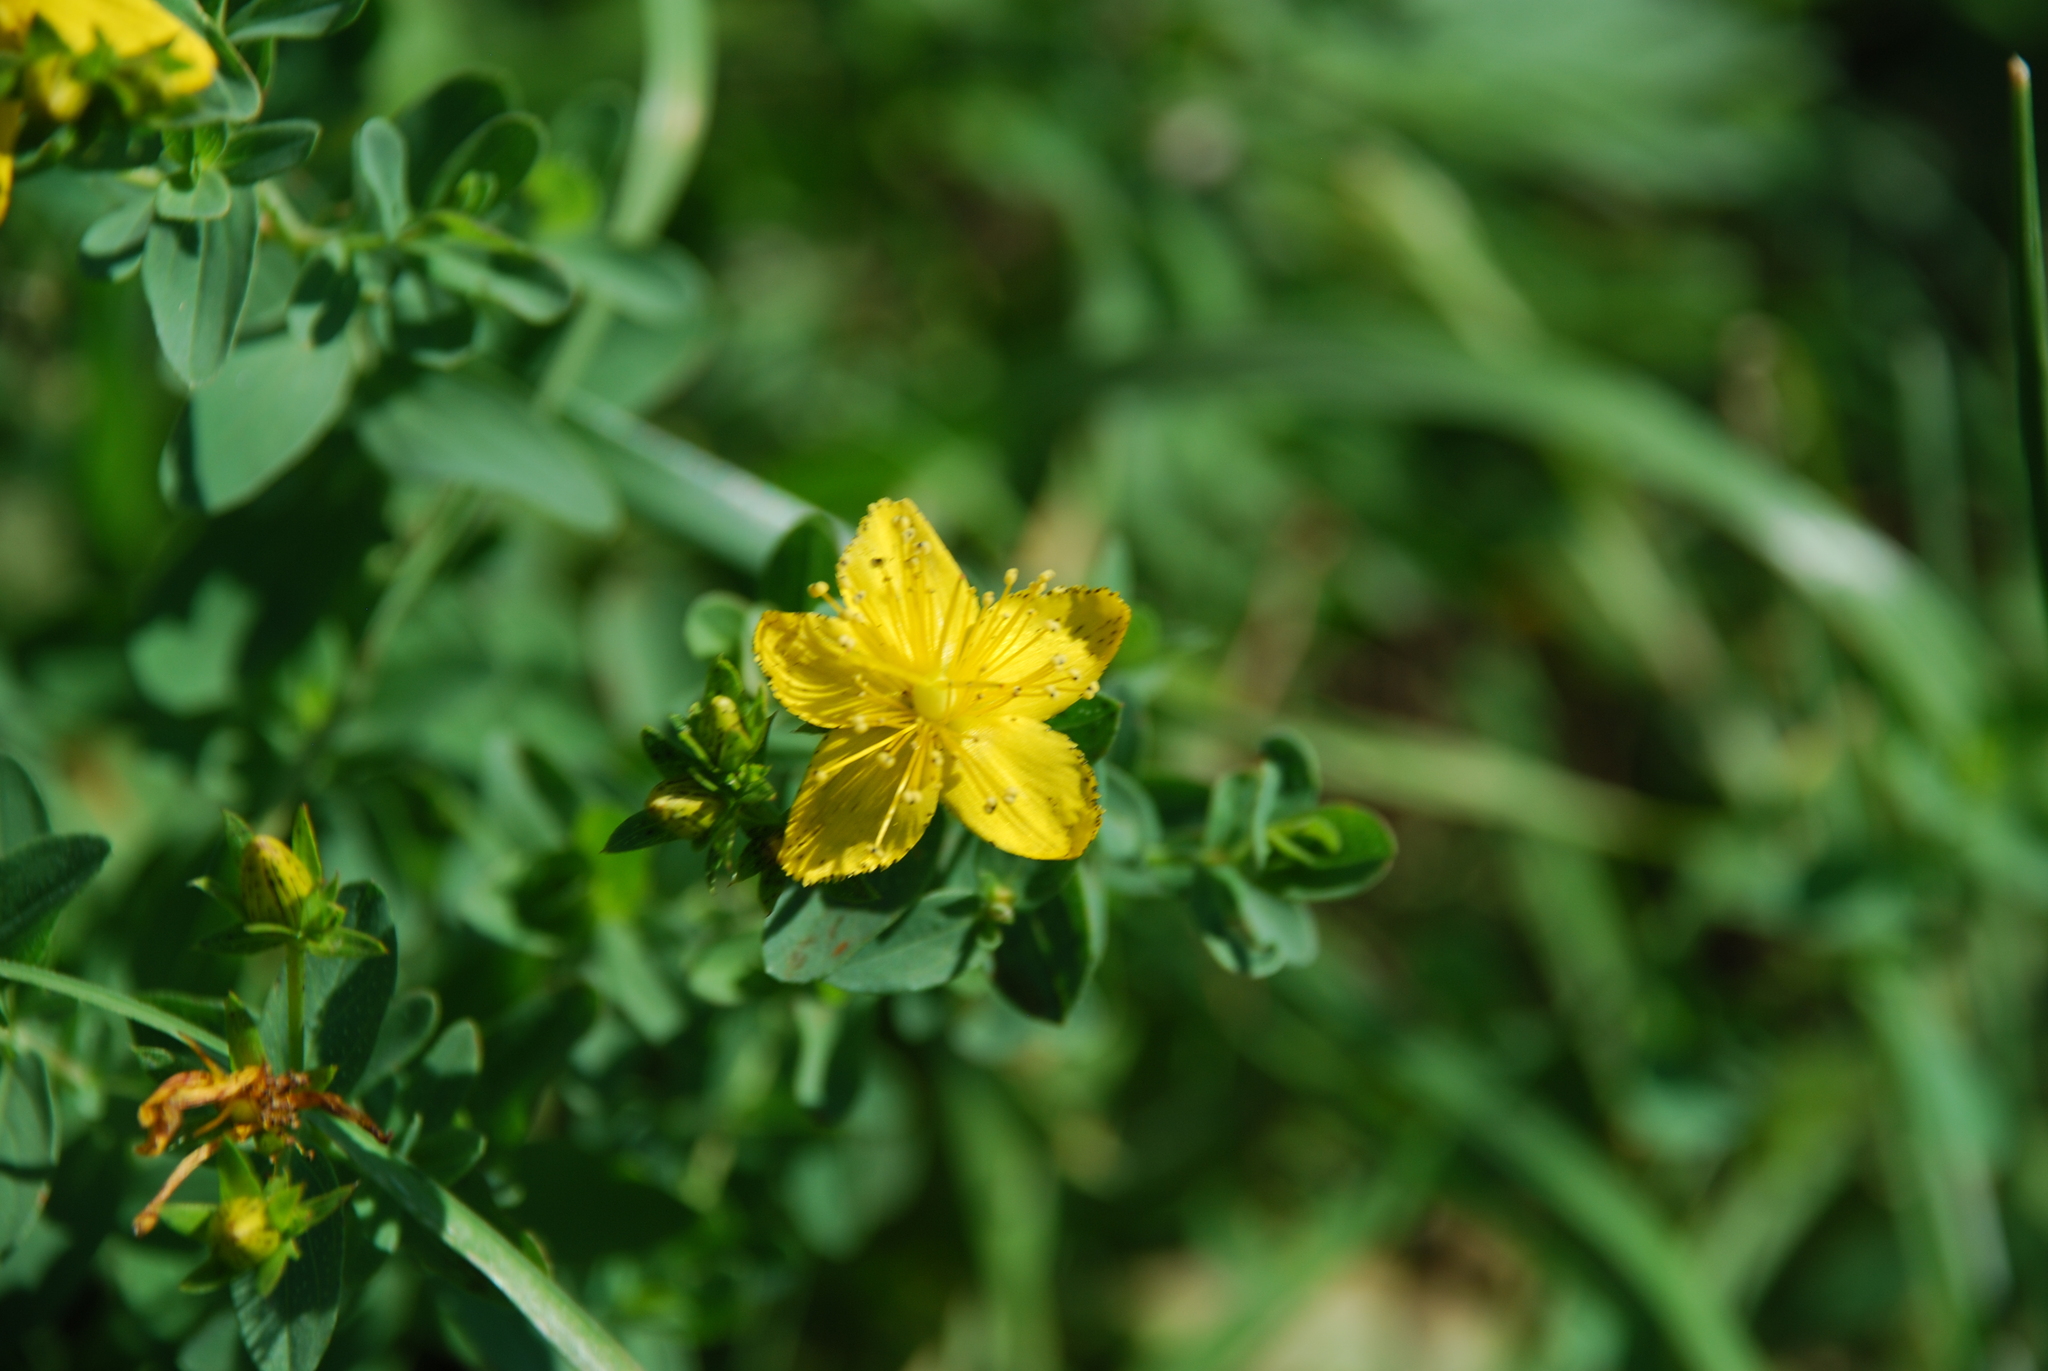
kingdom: Plantae
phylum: Tracheophyta
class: Magnoliopsida
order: Malpighiales
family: Hypericaceae
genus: Hypericum
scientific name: Hypericum perforatum
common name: Common st. johnswort
